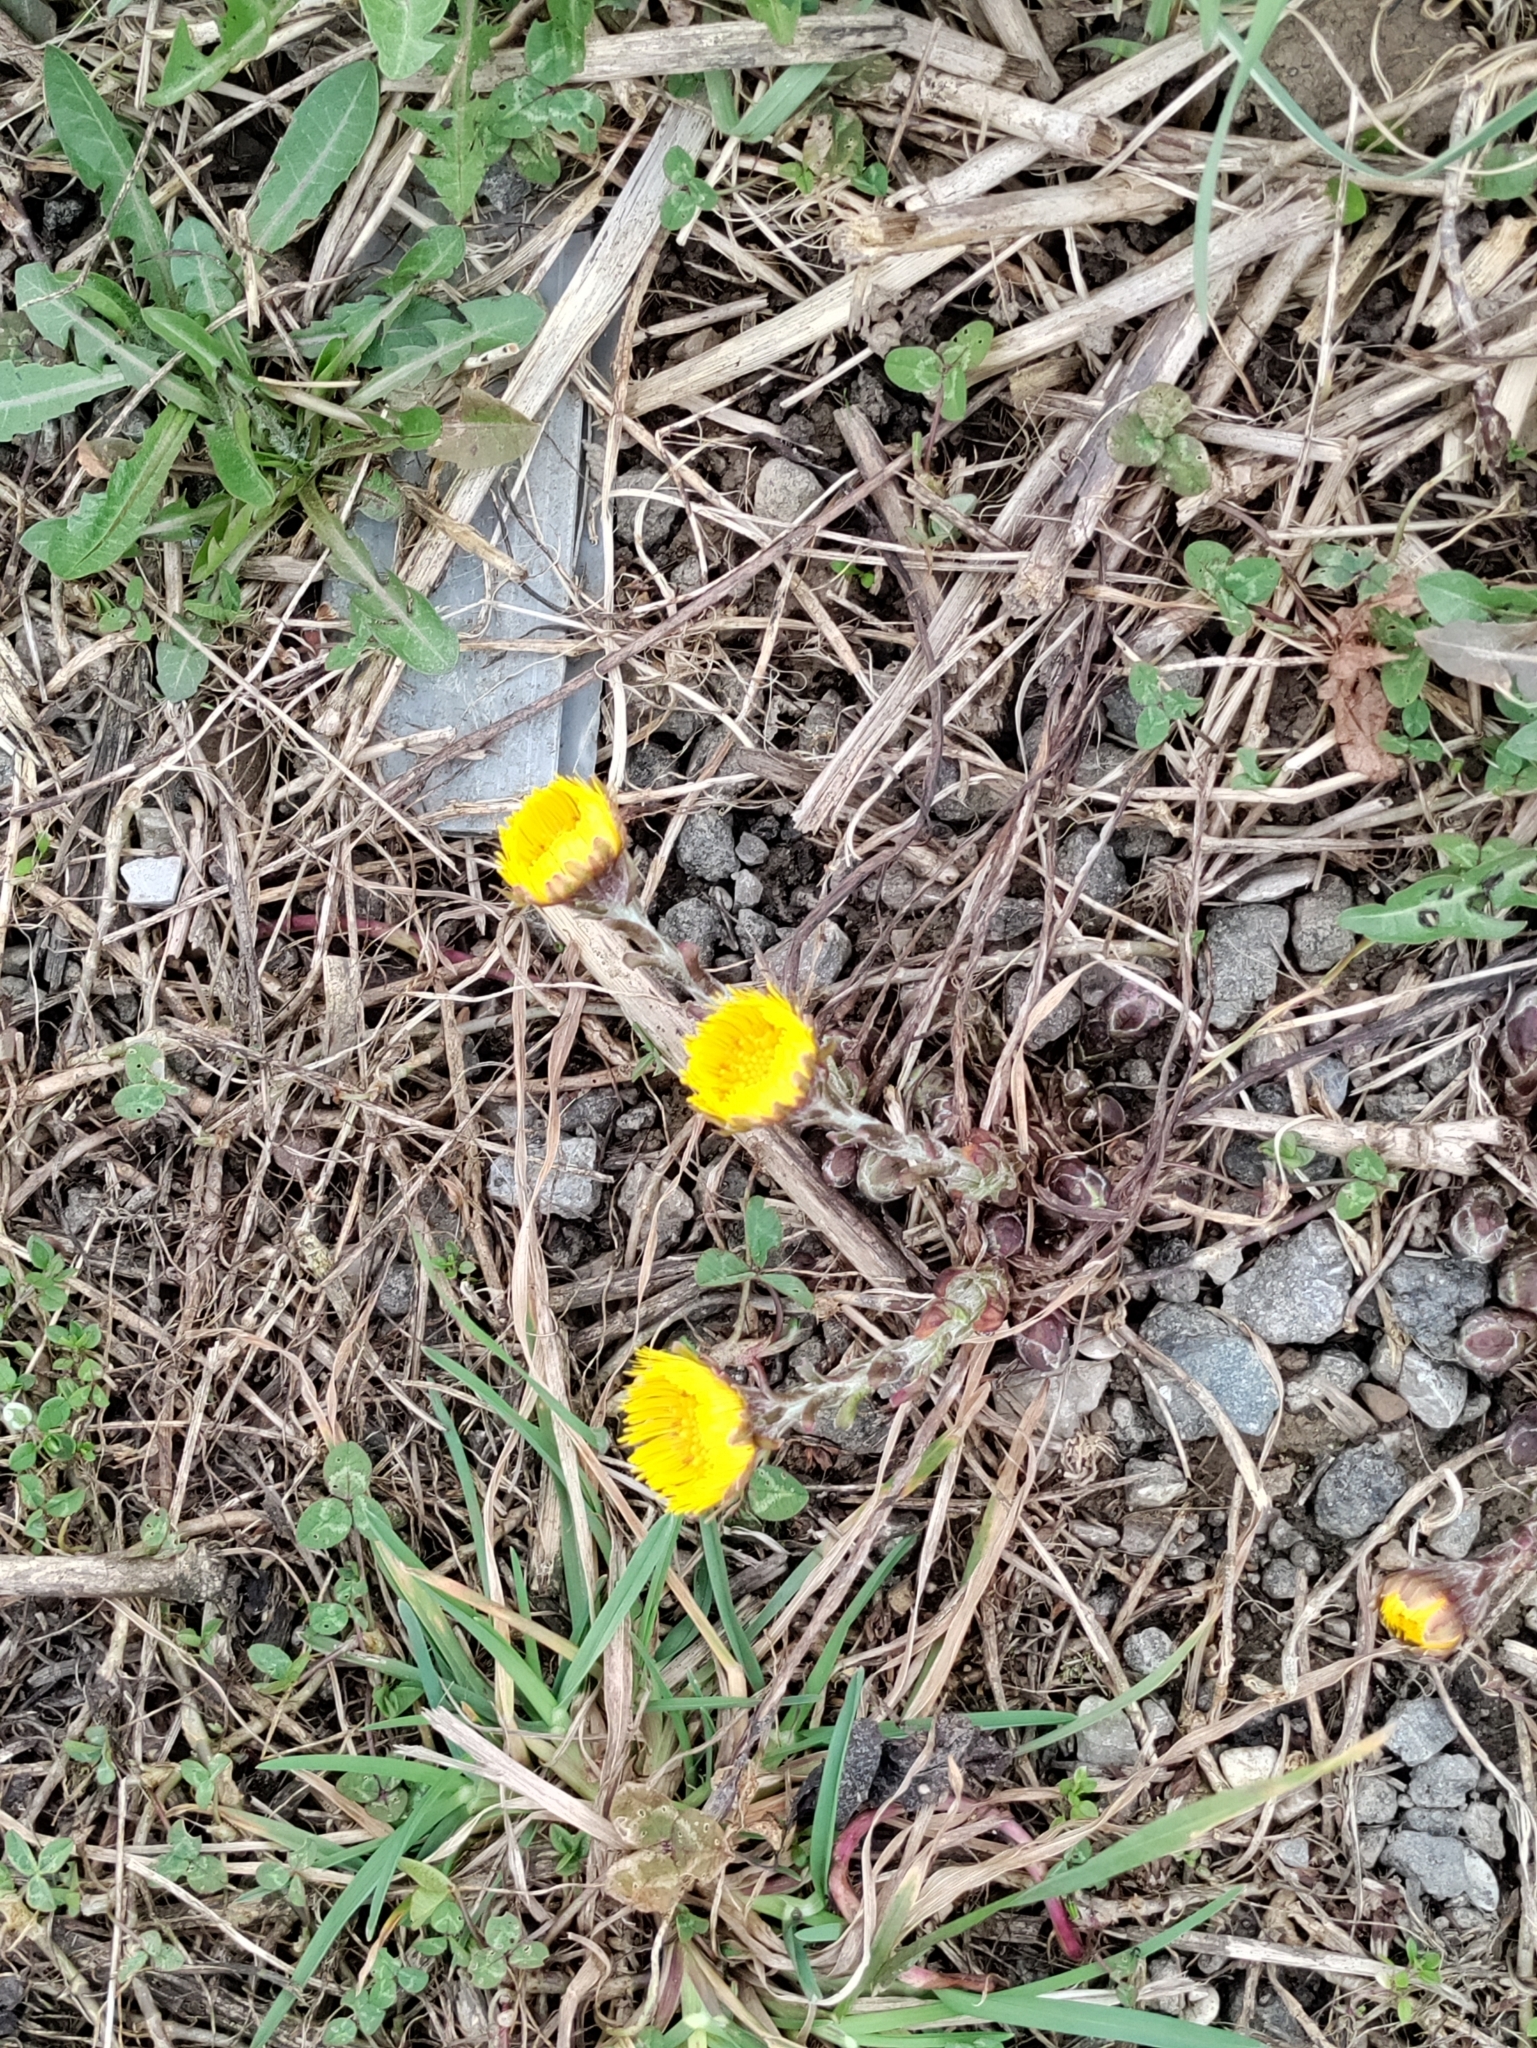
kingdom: Plantae
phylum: Tracheophyta
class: Magnoliopsida
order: Asterales
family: Asteraceae
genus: Tussilago
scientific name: Tussilago farfara
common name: Coltsfoot
